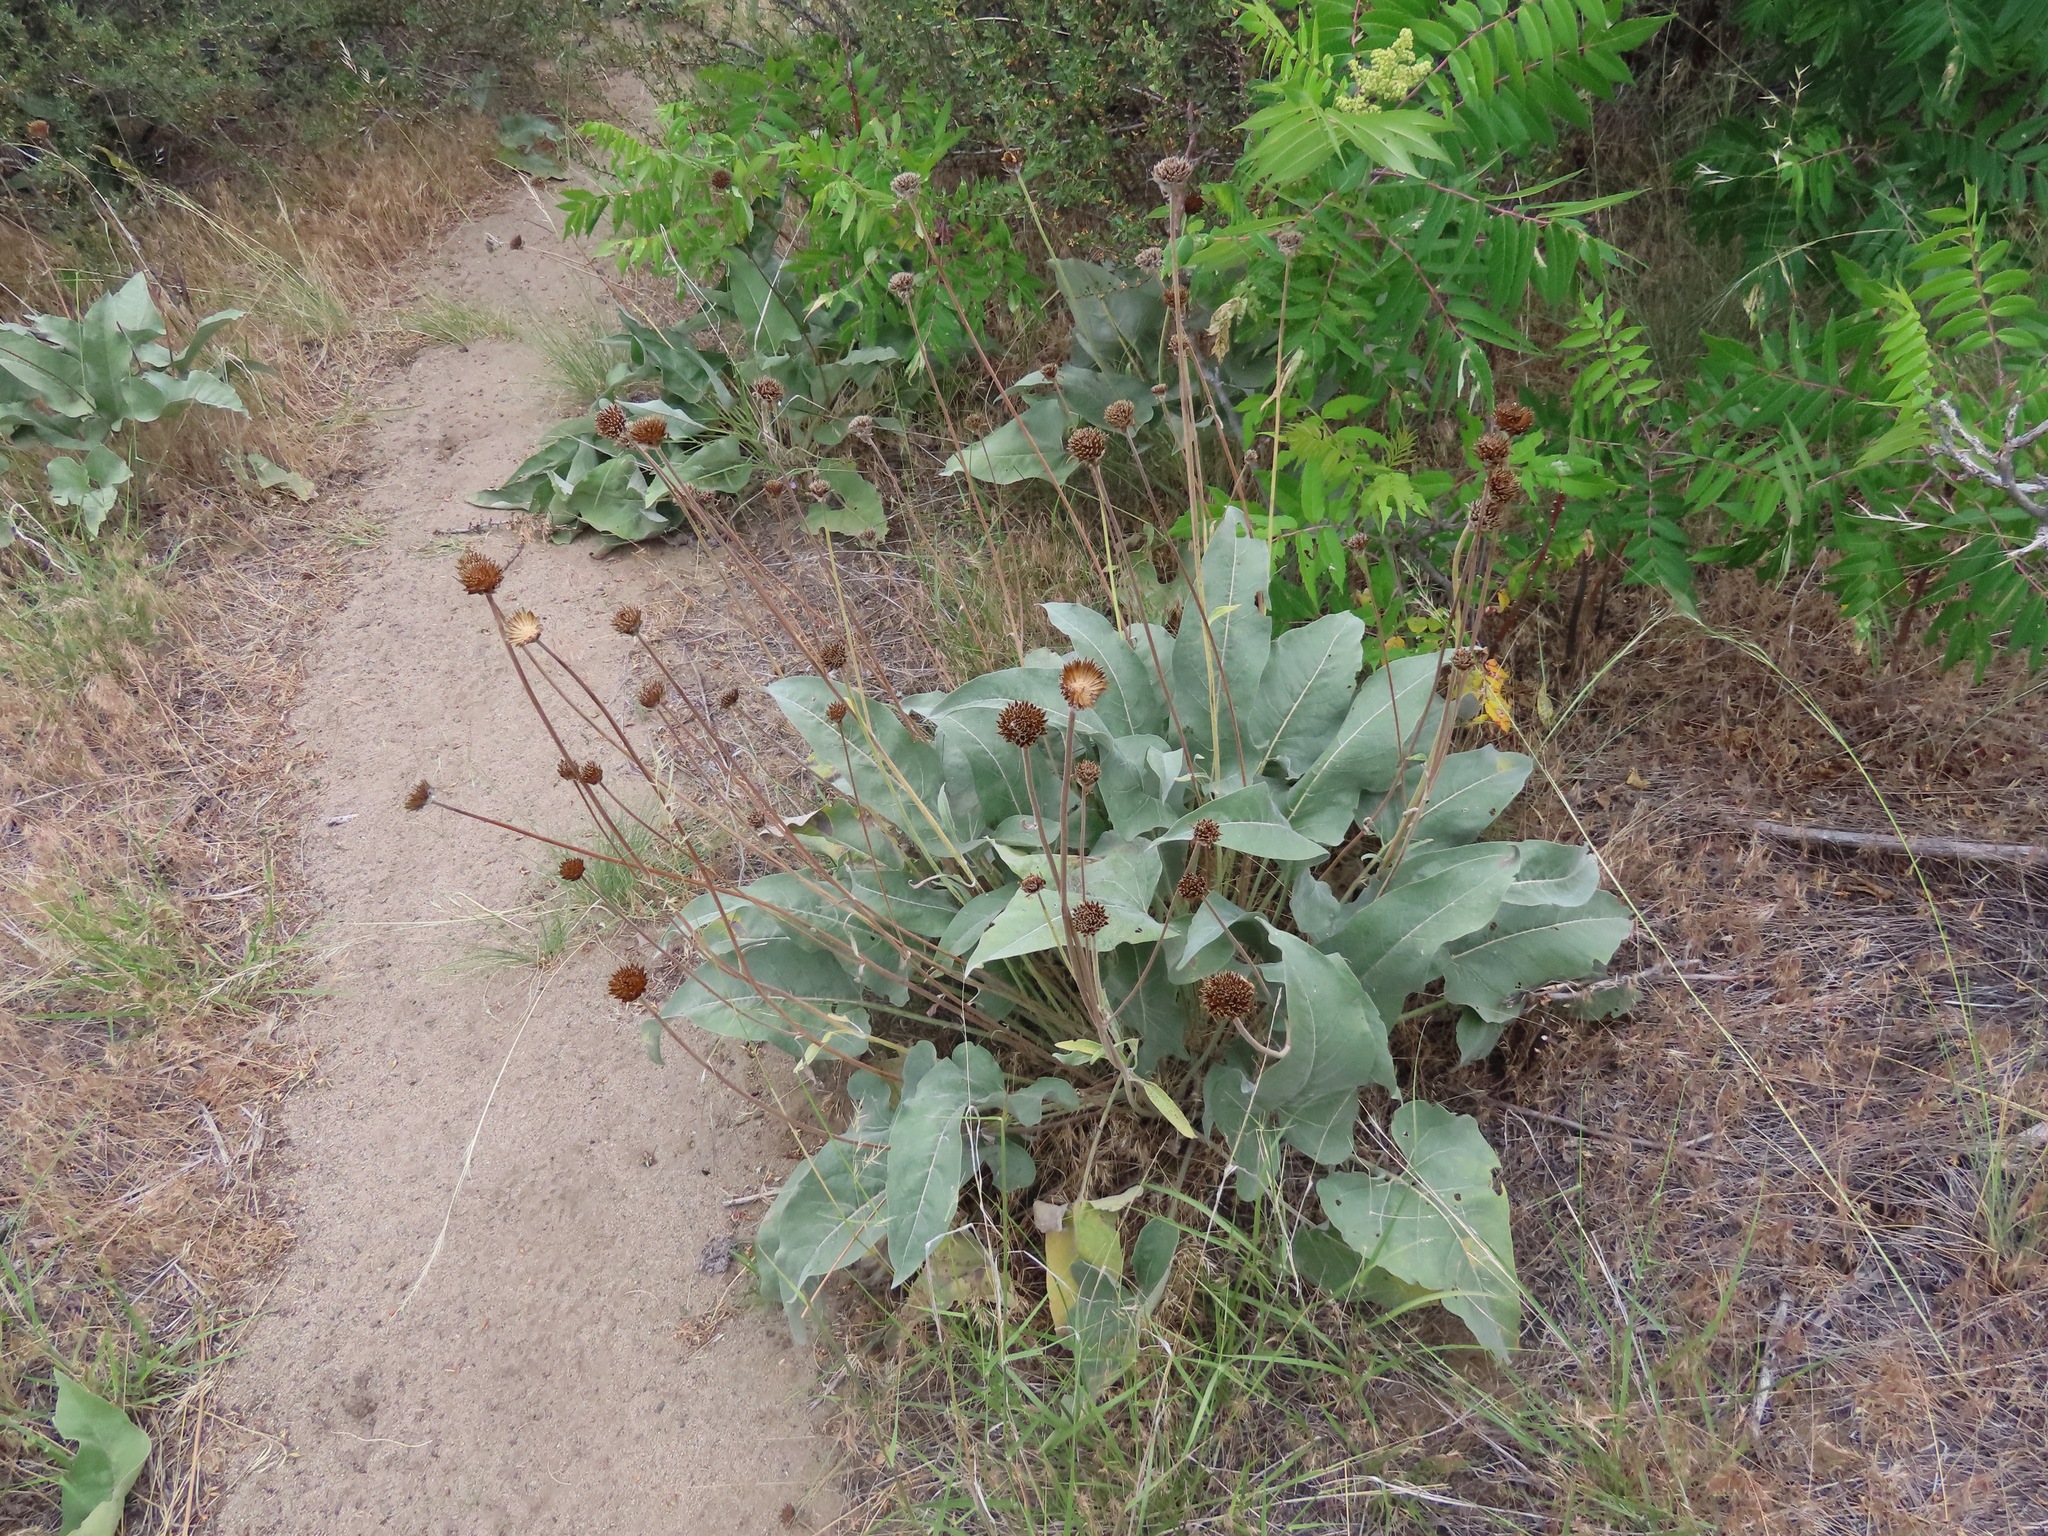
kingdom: Plantae
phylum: Tracheophyta
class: Magnoliopsida
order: Asterales
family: Asteraceae
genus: Wyethia
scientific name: Wyethia sagittata
